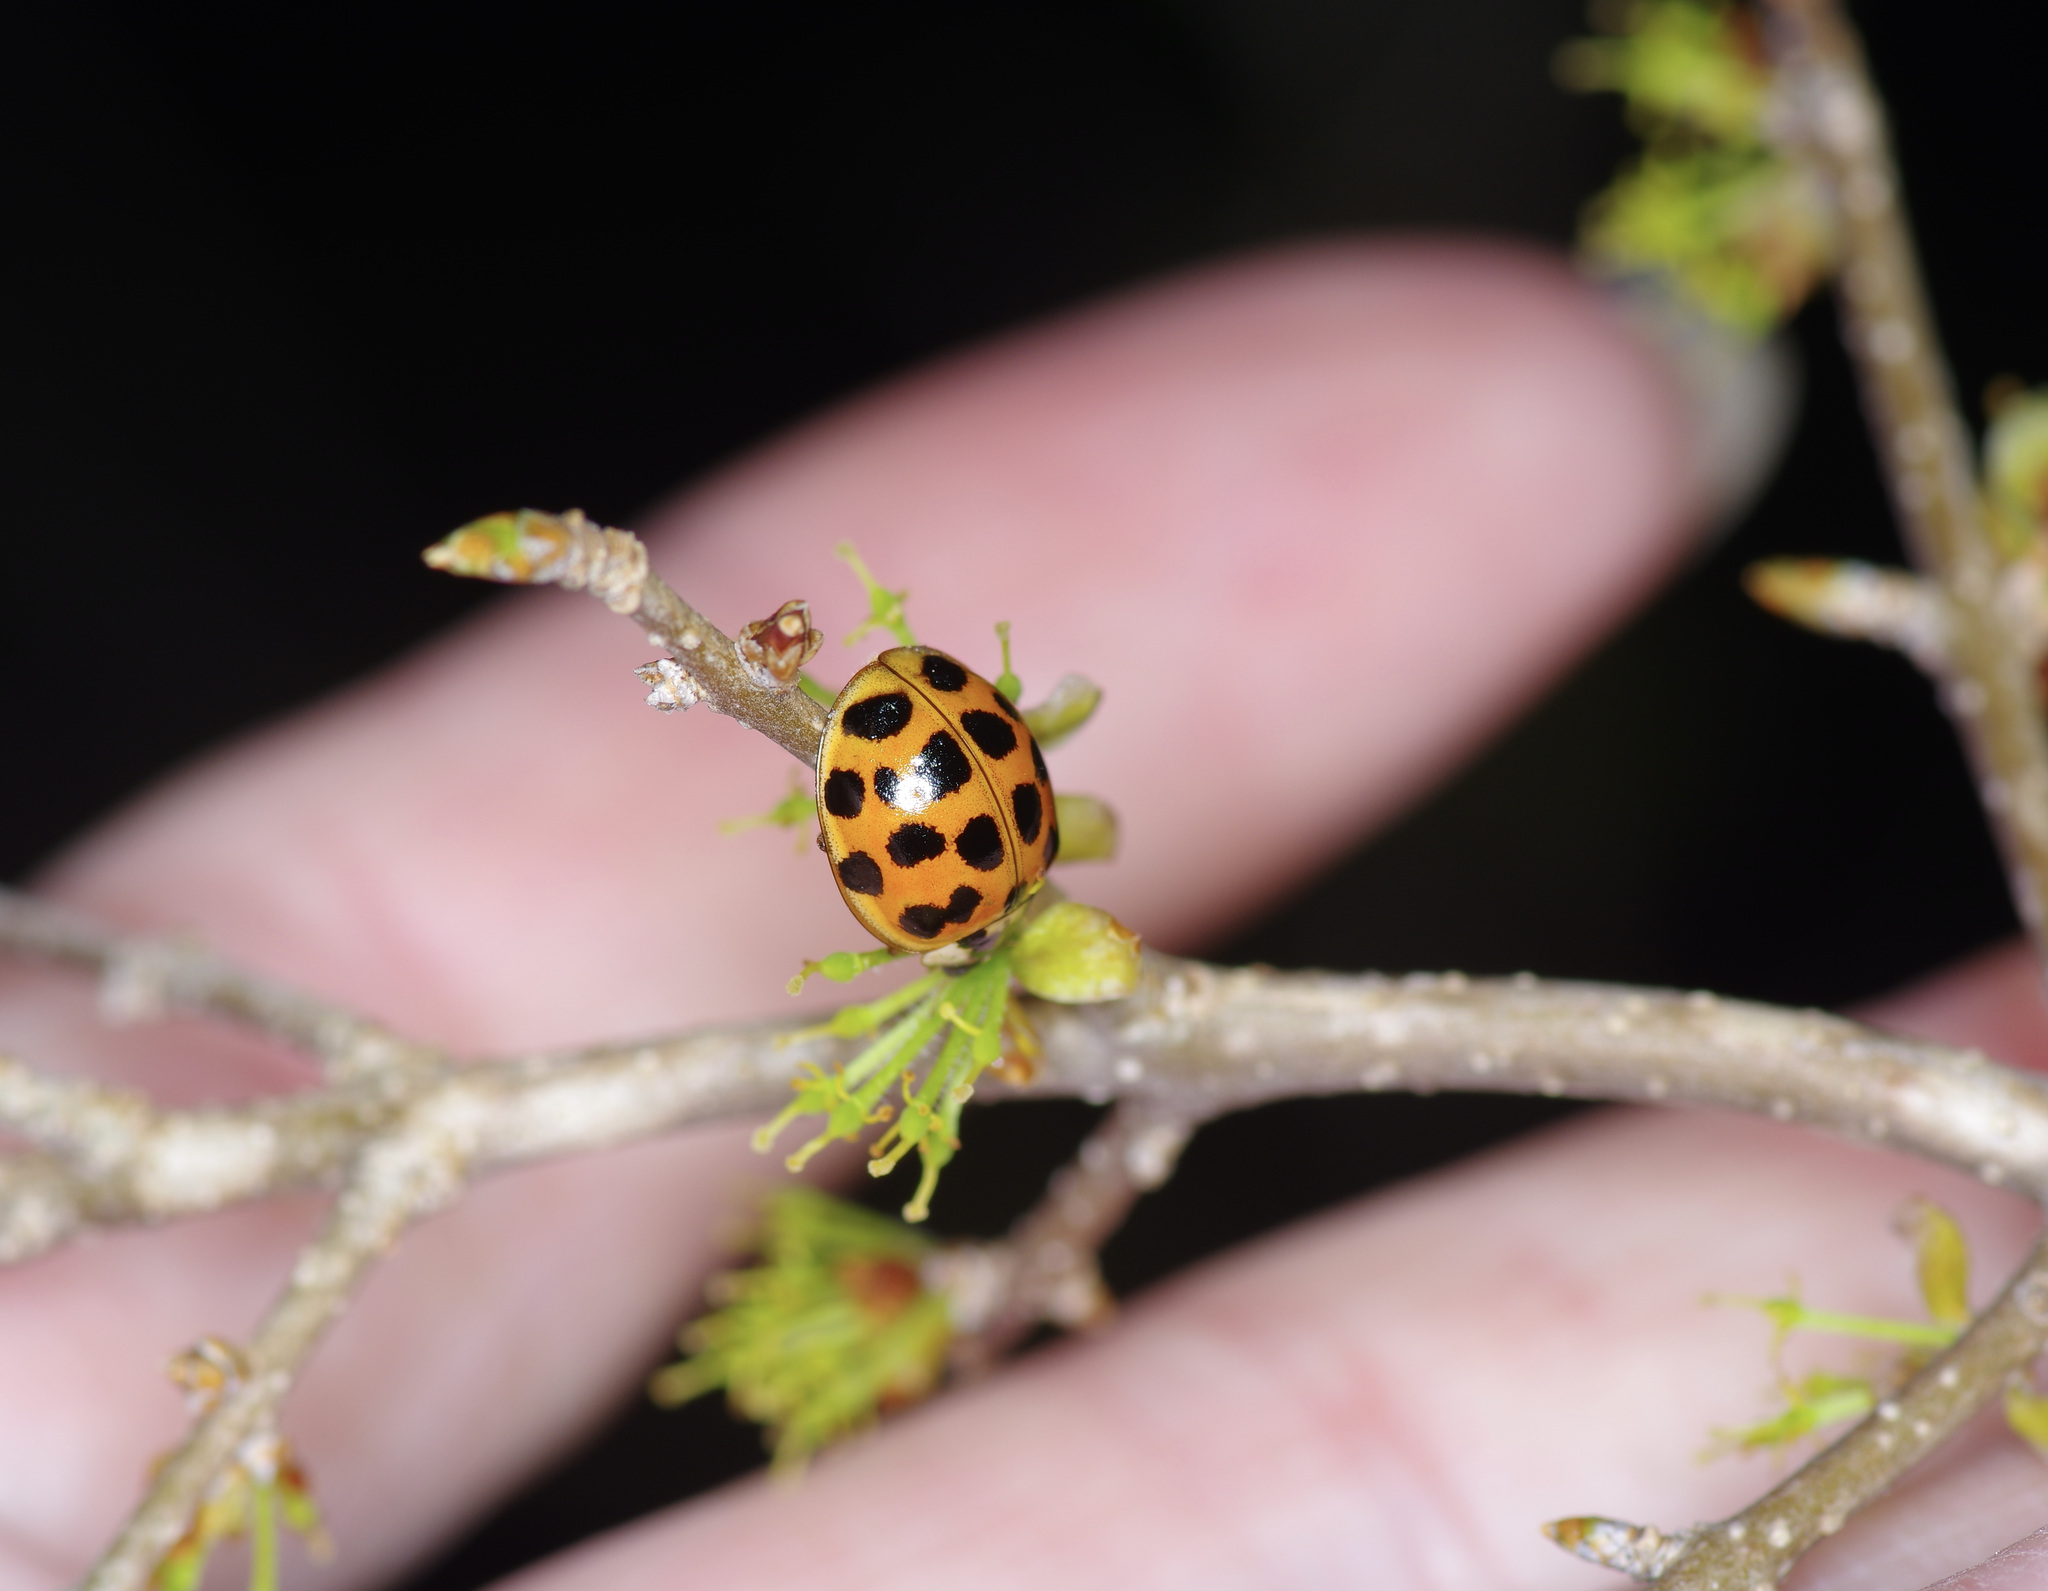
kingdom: Animalia
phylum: Arthropoda
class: Insecta
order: Coleoptera
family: Coccinellidae
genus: Harmonia
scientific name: Harmonia axyridis
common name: Harlequin ladybird
